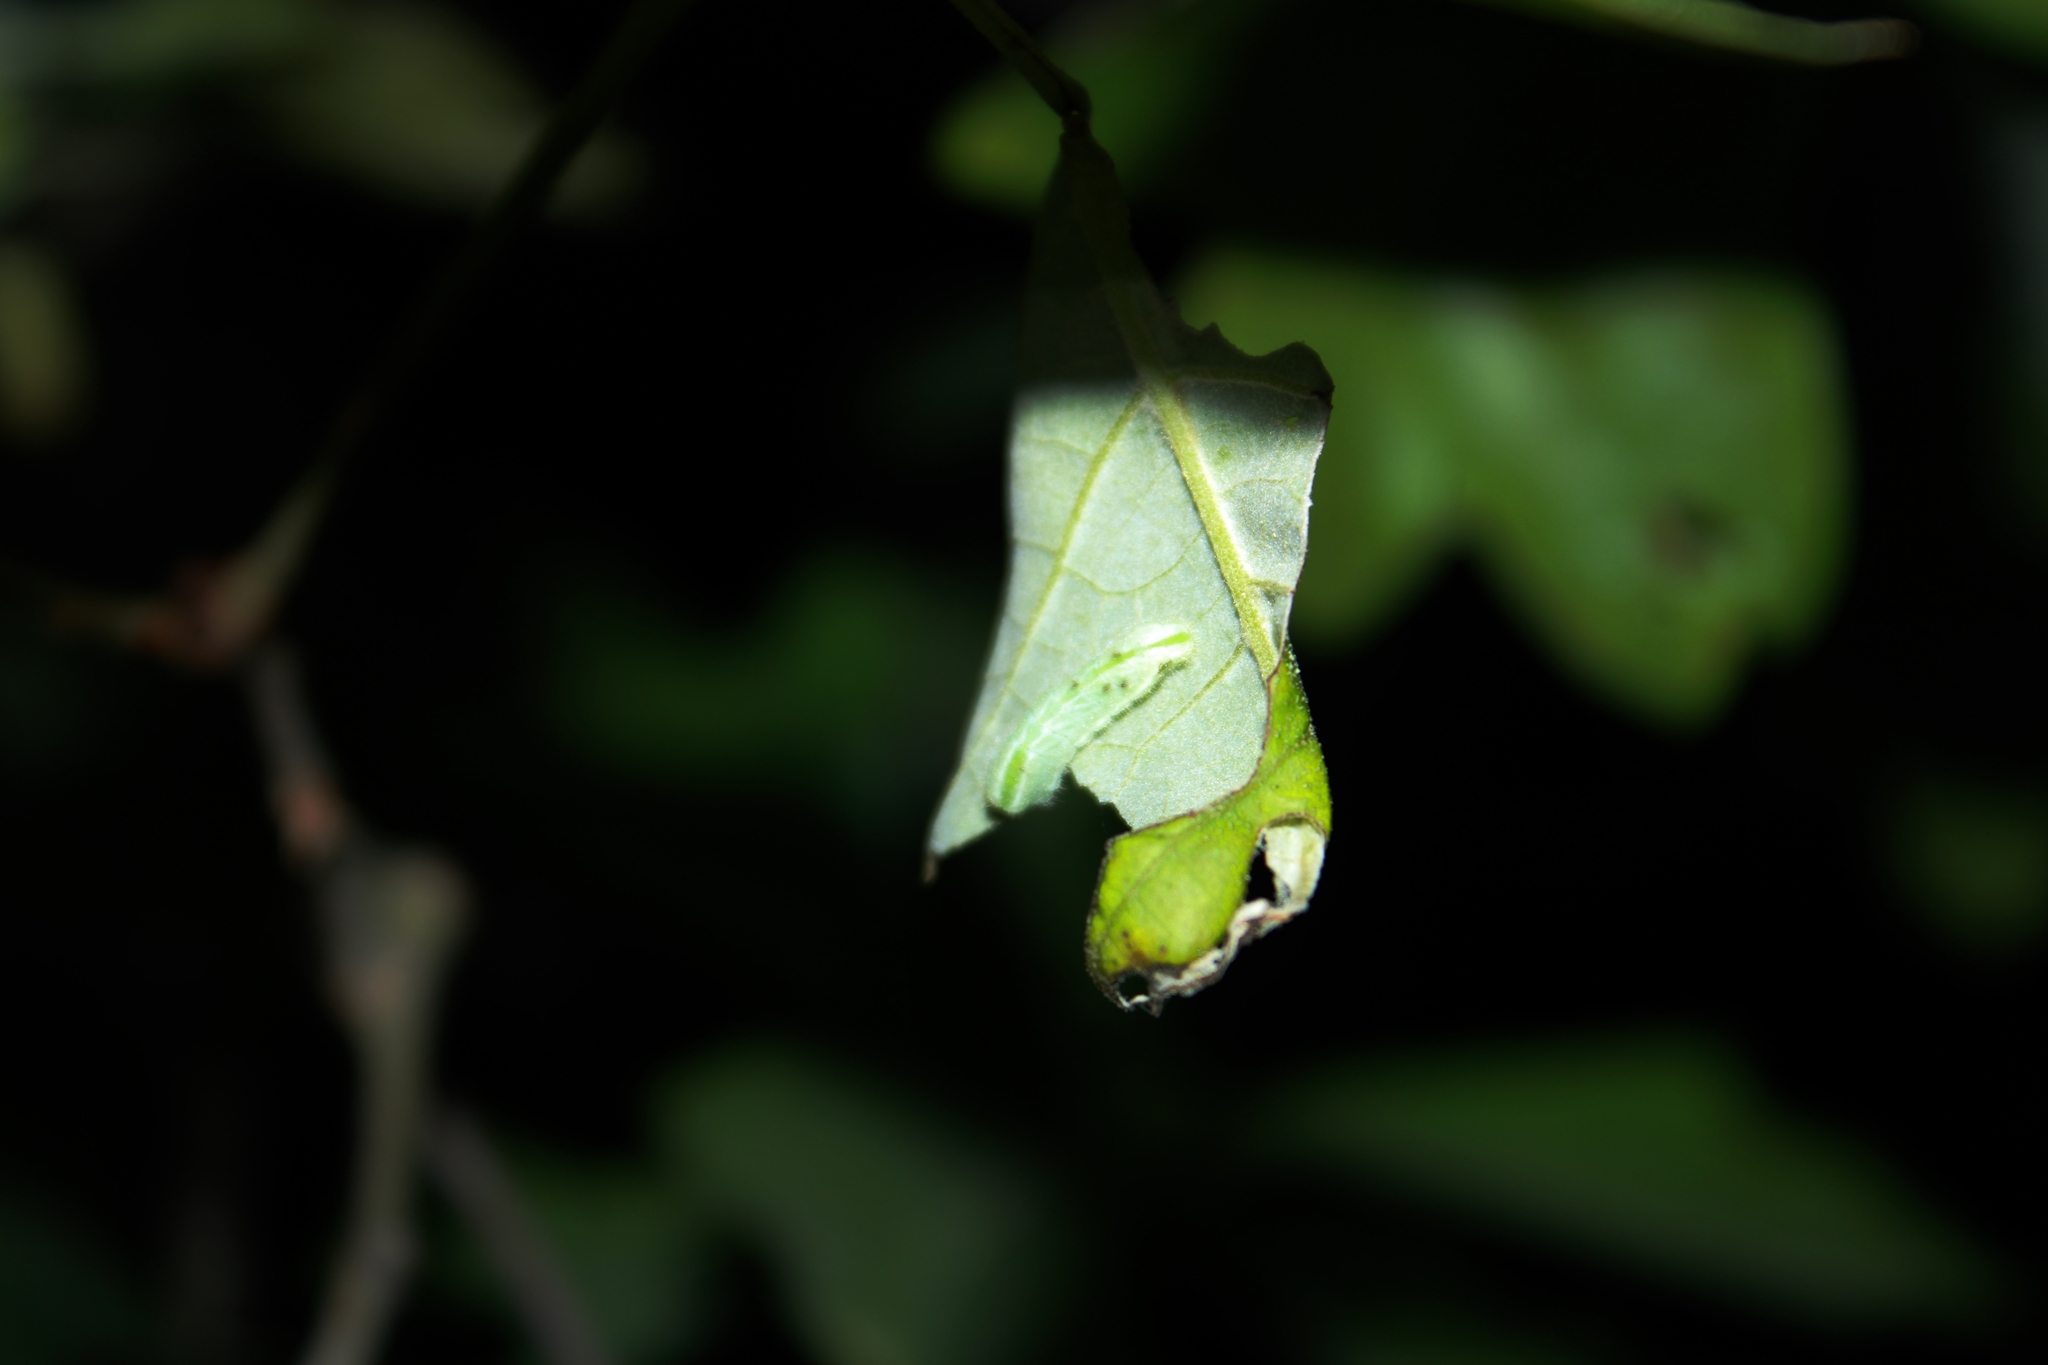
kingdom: Animalia
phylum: Arthropoda
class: Insecta
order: Lepidoptera
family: Lycaenidae
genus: Satyrium
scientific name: Satyrium edwardsii
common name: Edwards' hairstreak
